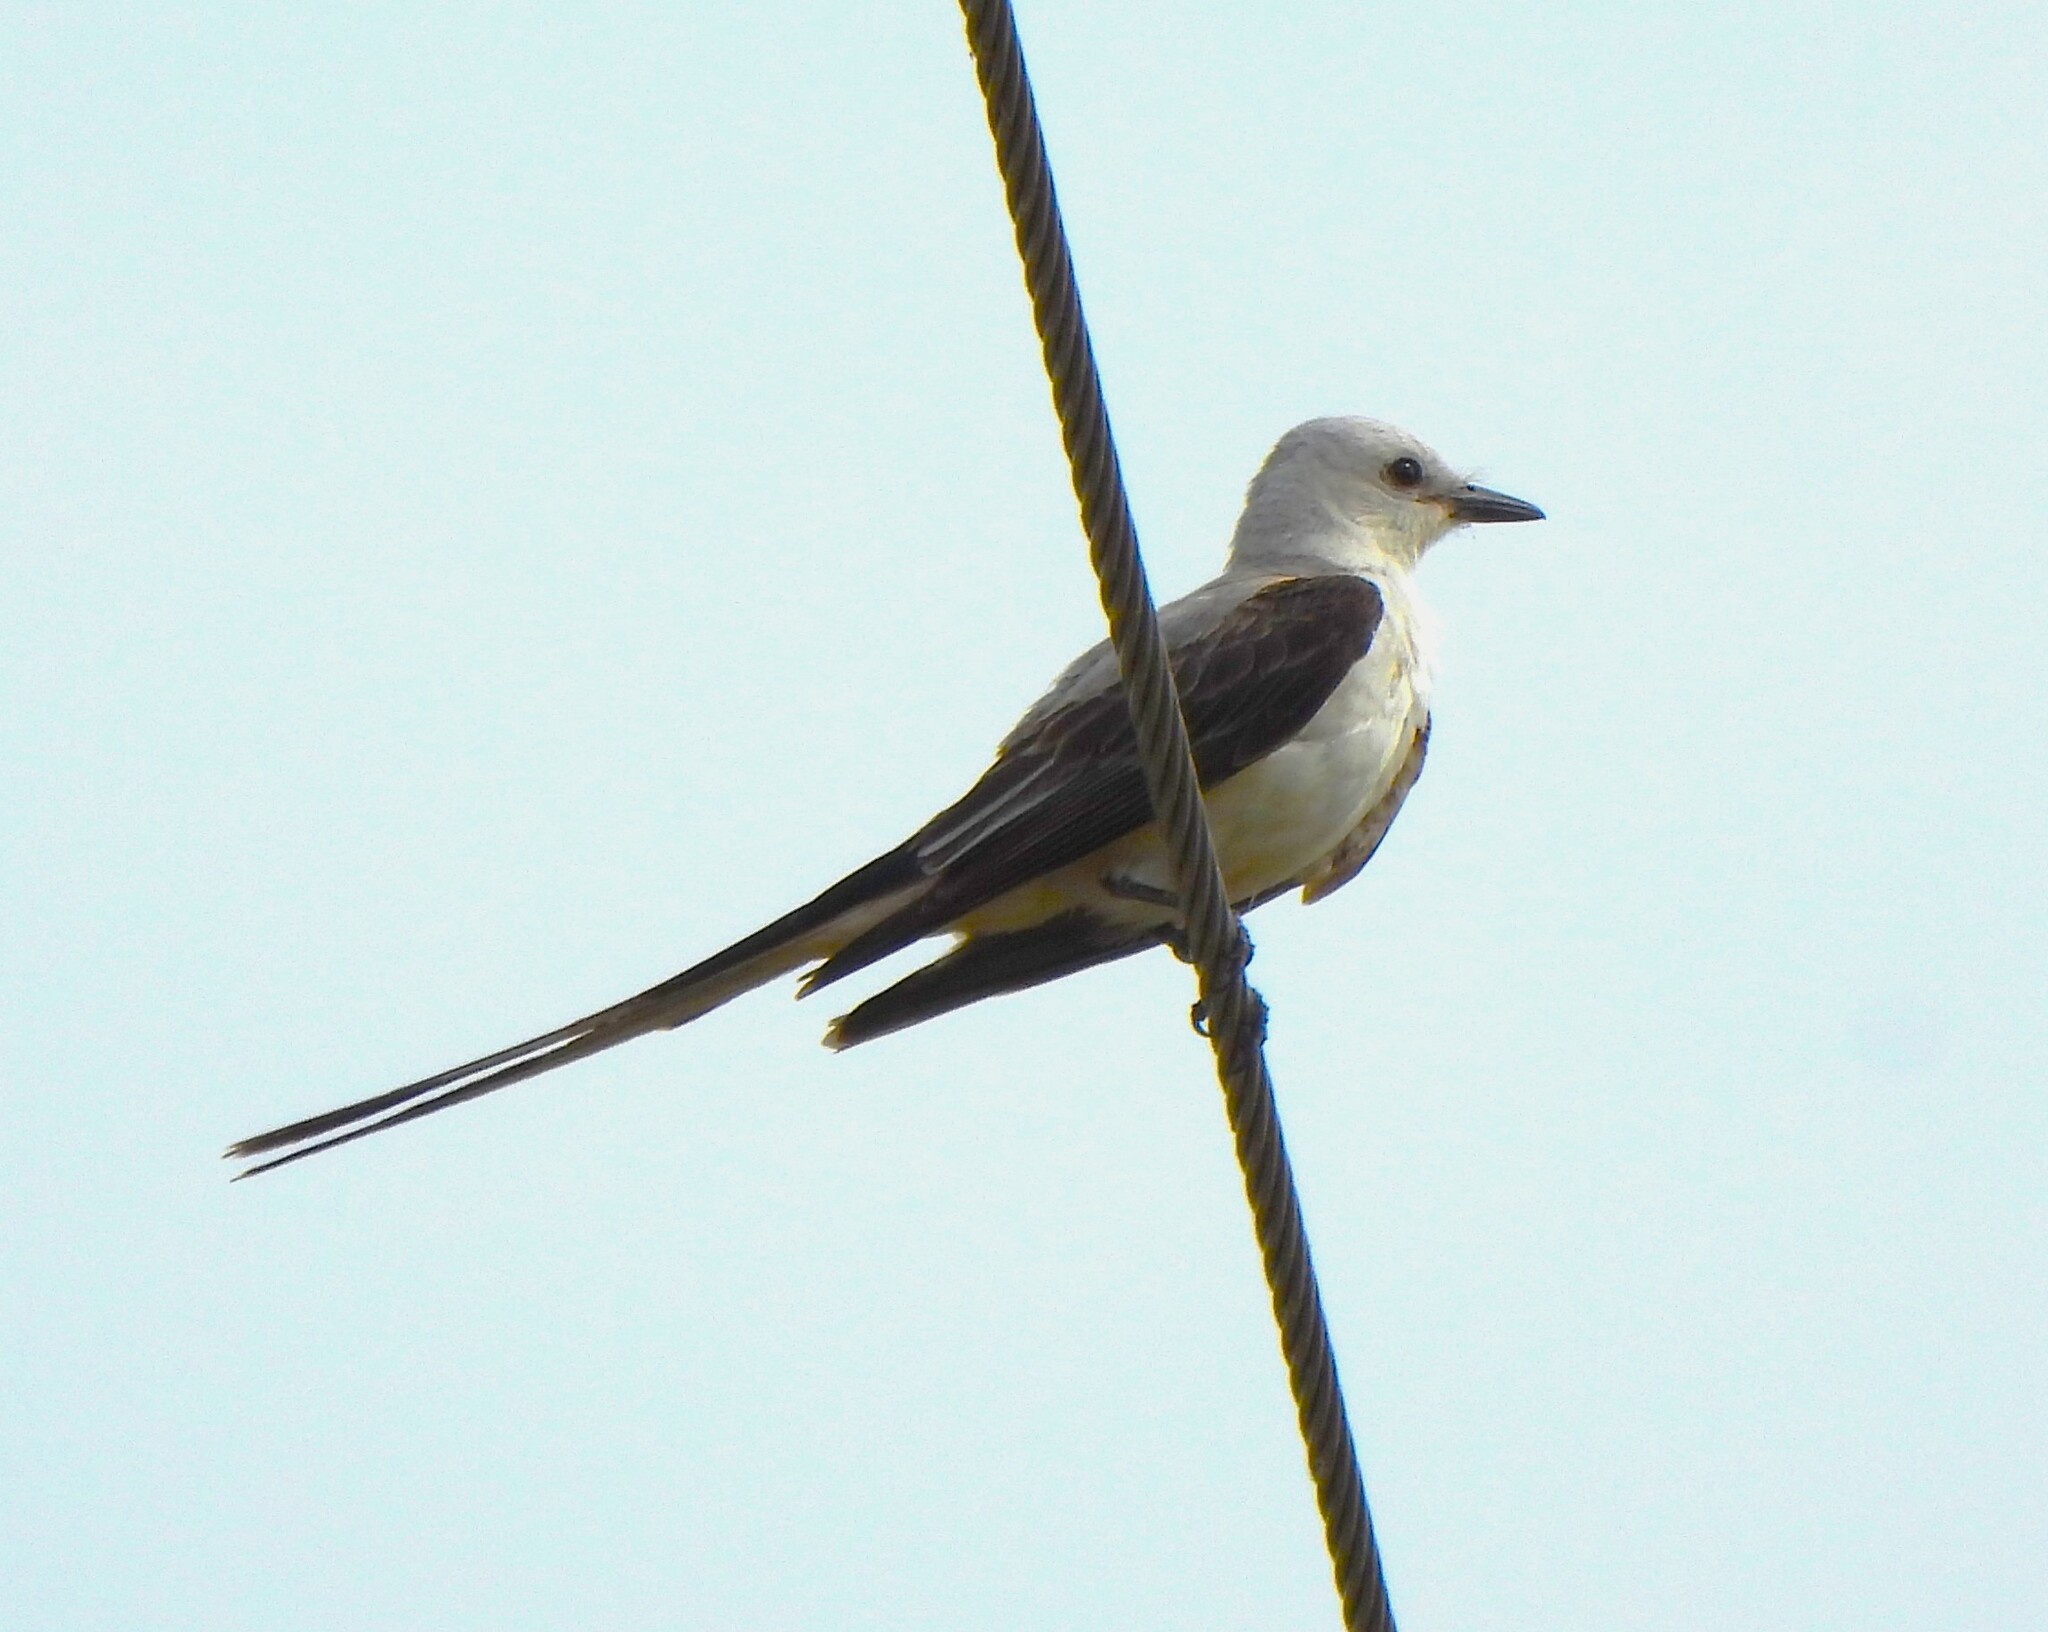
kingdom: Animalia
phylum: Chordata
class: Aves
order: Passeriformes
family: Tyrannidae
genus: Tyrannus
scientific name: Tyrannus forficatus
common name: Scissor-tailed flycatcher
